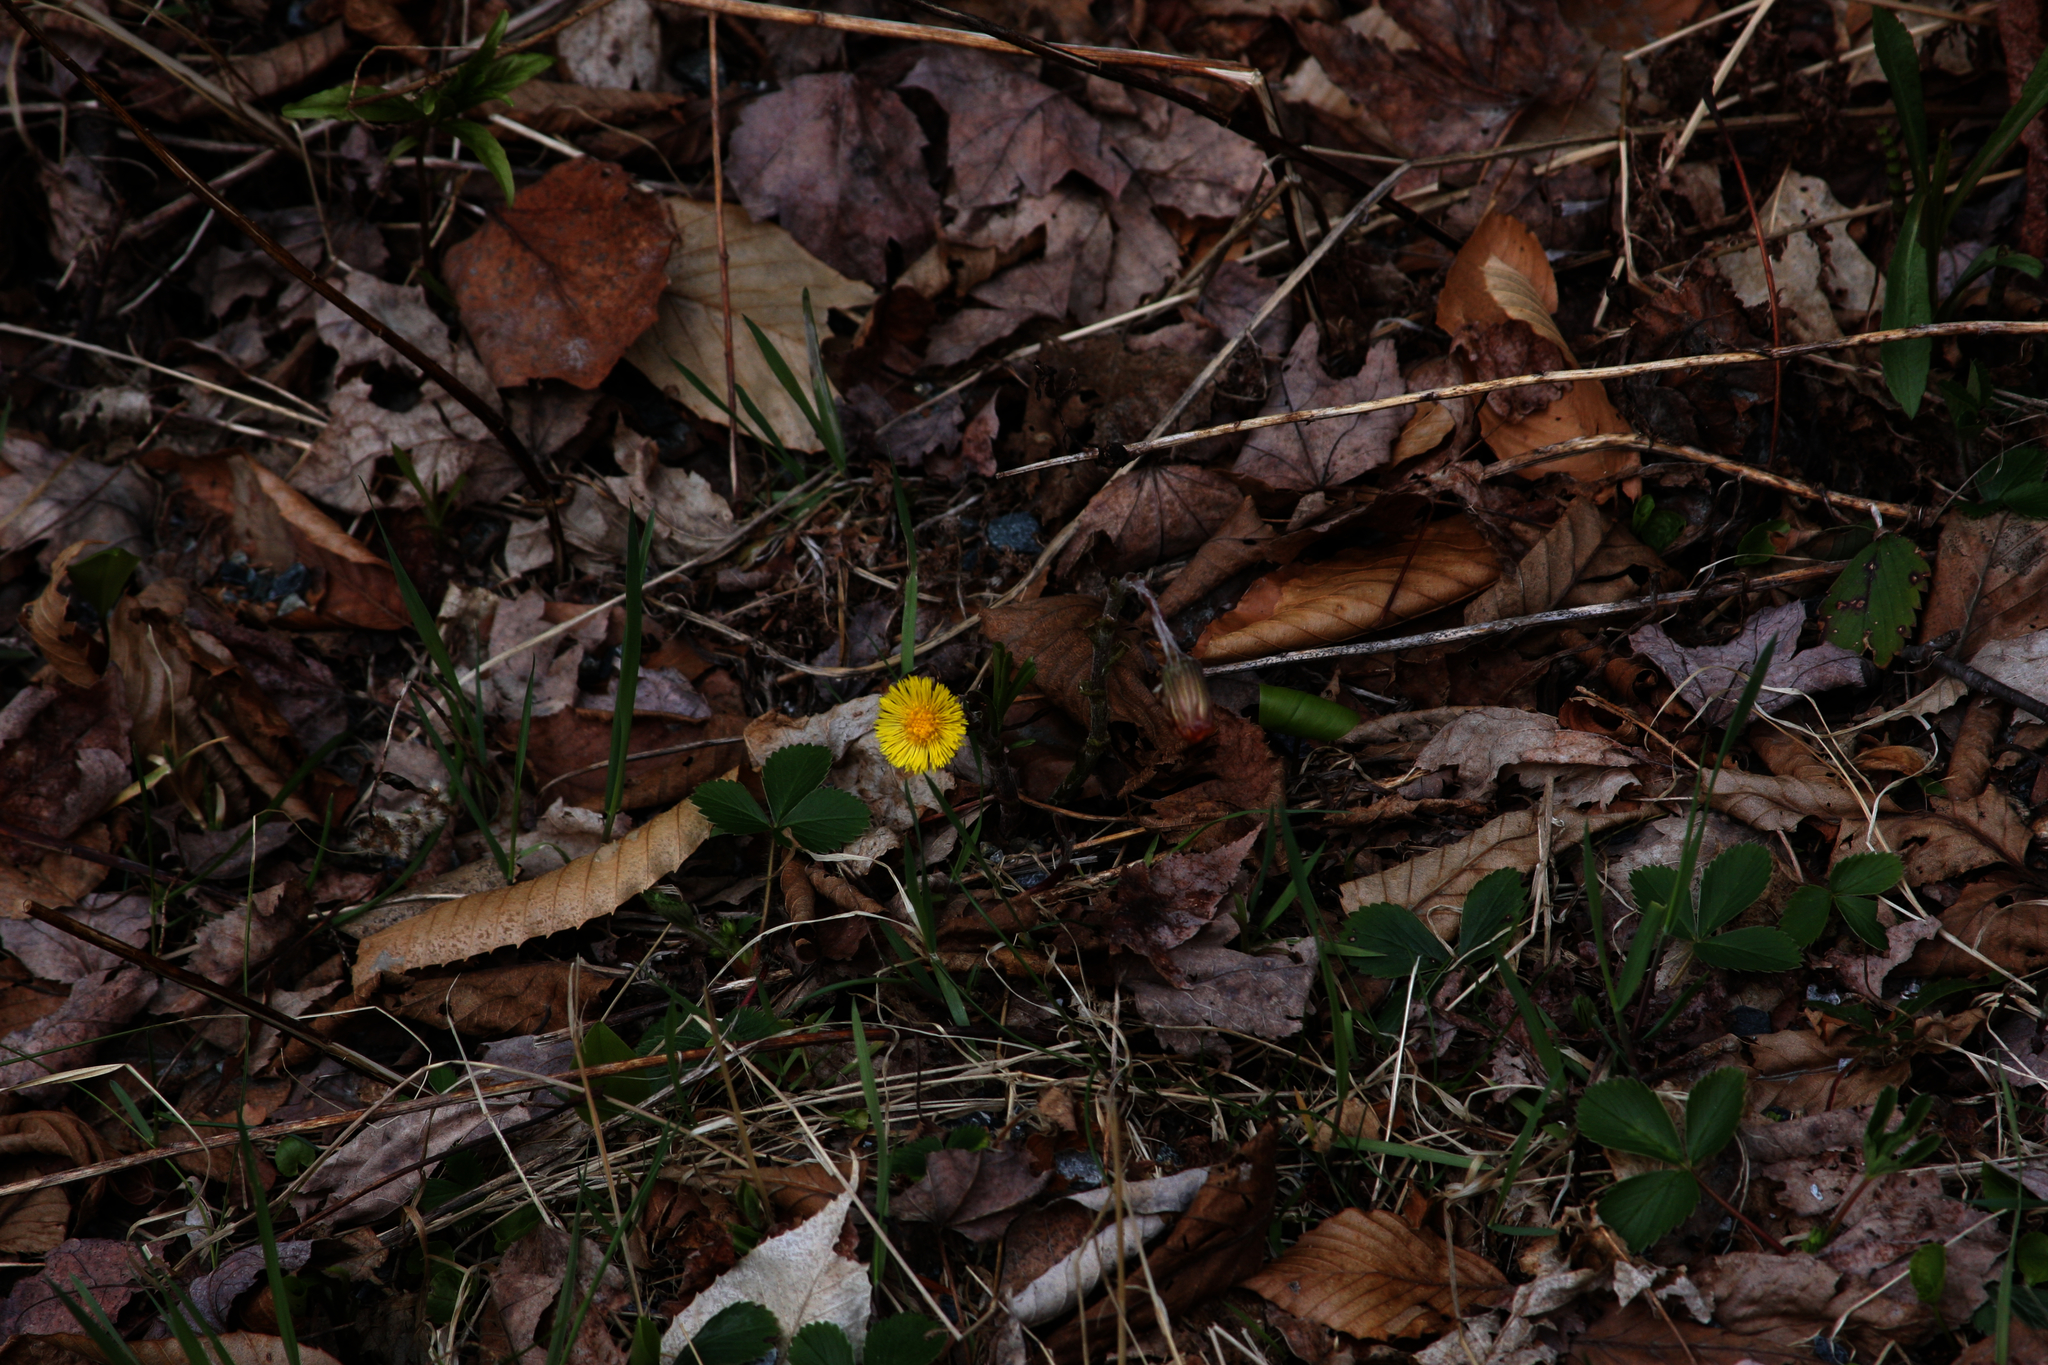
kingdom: Plantae
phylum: Tracheophyta
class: Magnoliopsida
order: Asterales
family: Asteraceae
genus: Tussilago
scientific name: Tussilago farfara
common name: Coltsfoot
